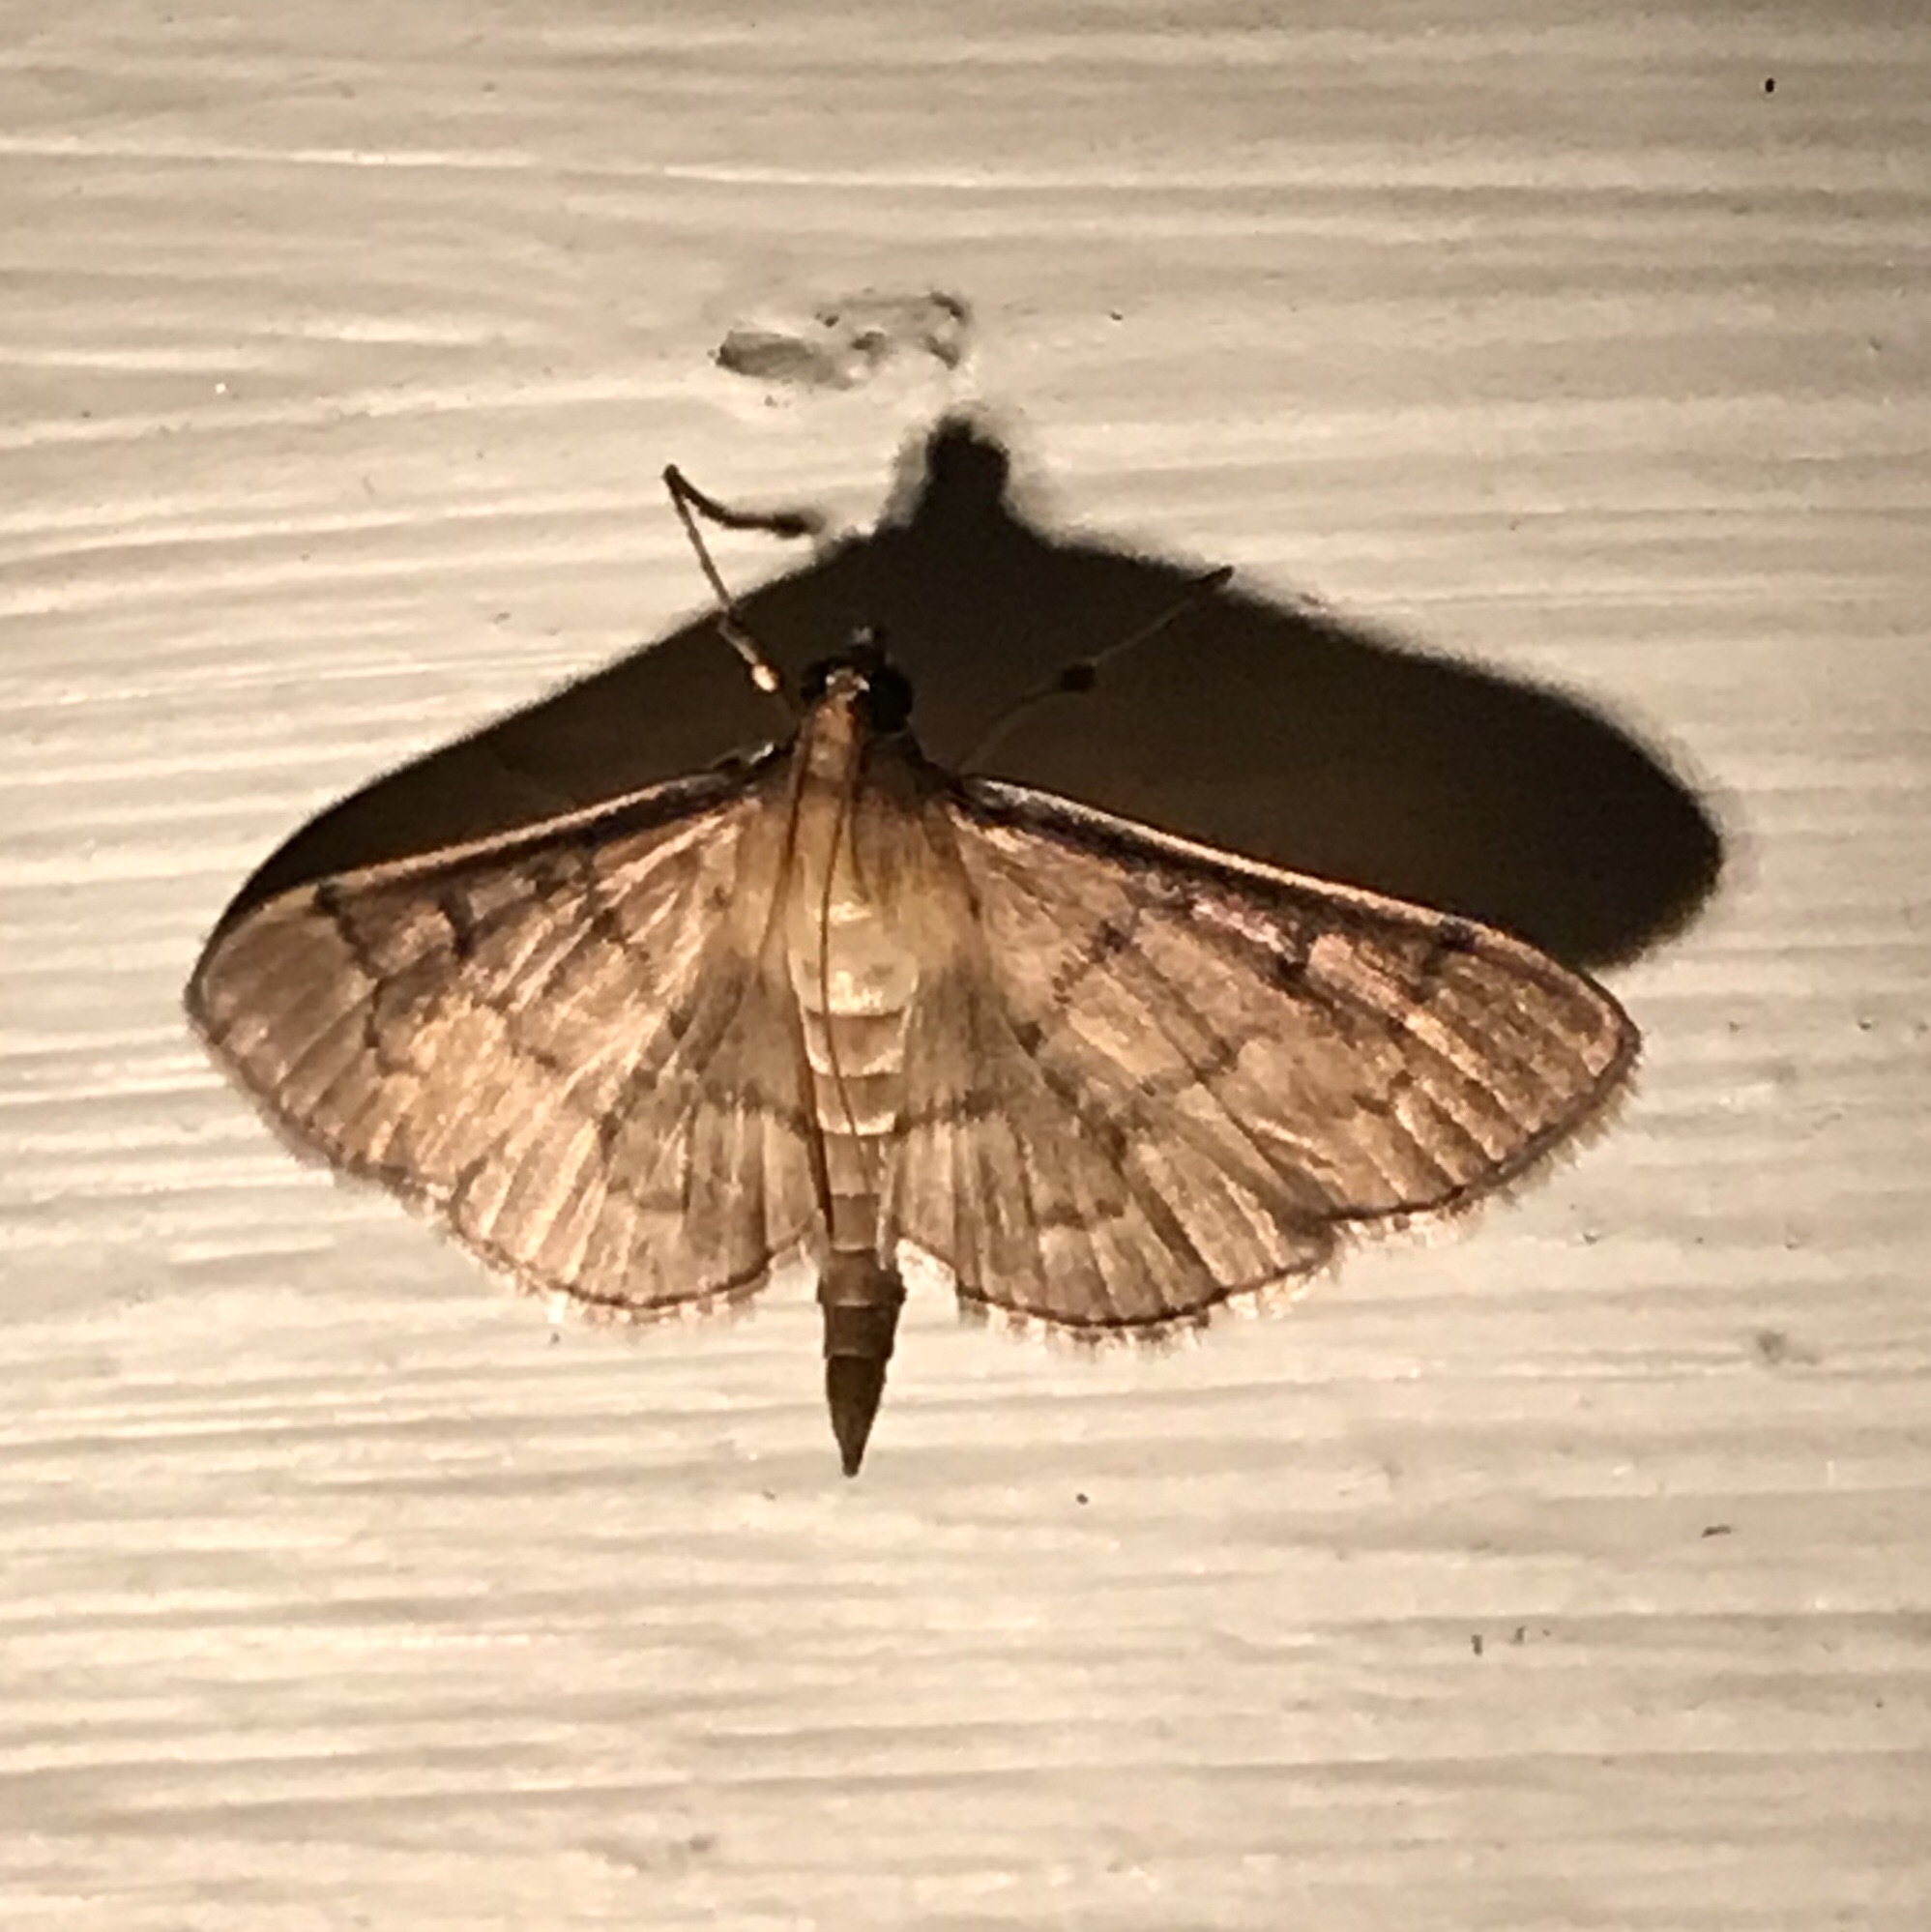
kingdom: Animalia
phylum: Arthropoda
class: Insecta
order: Lepidoptera
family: Crambidae
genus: Herpetogramma
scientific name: Herpetogramma theseusalis
